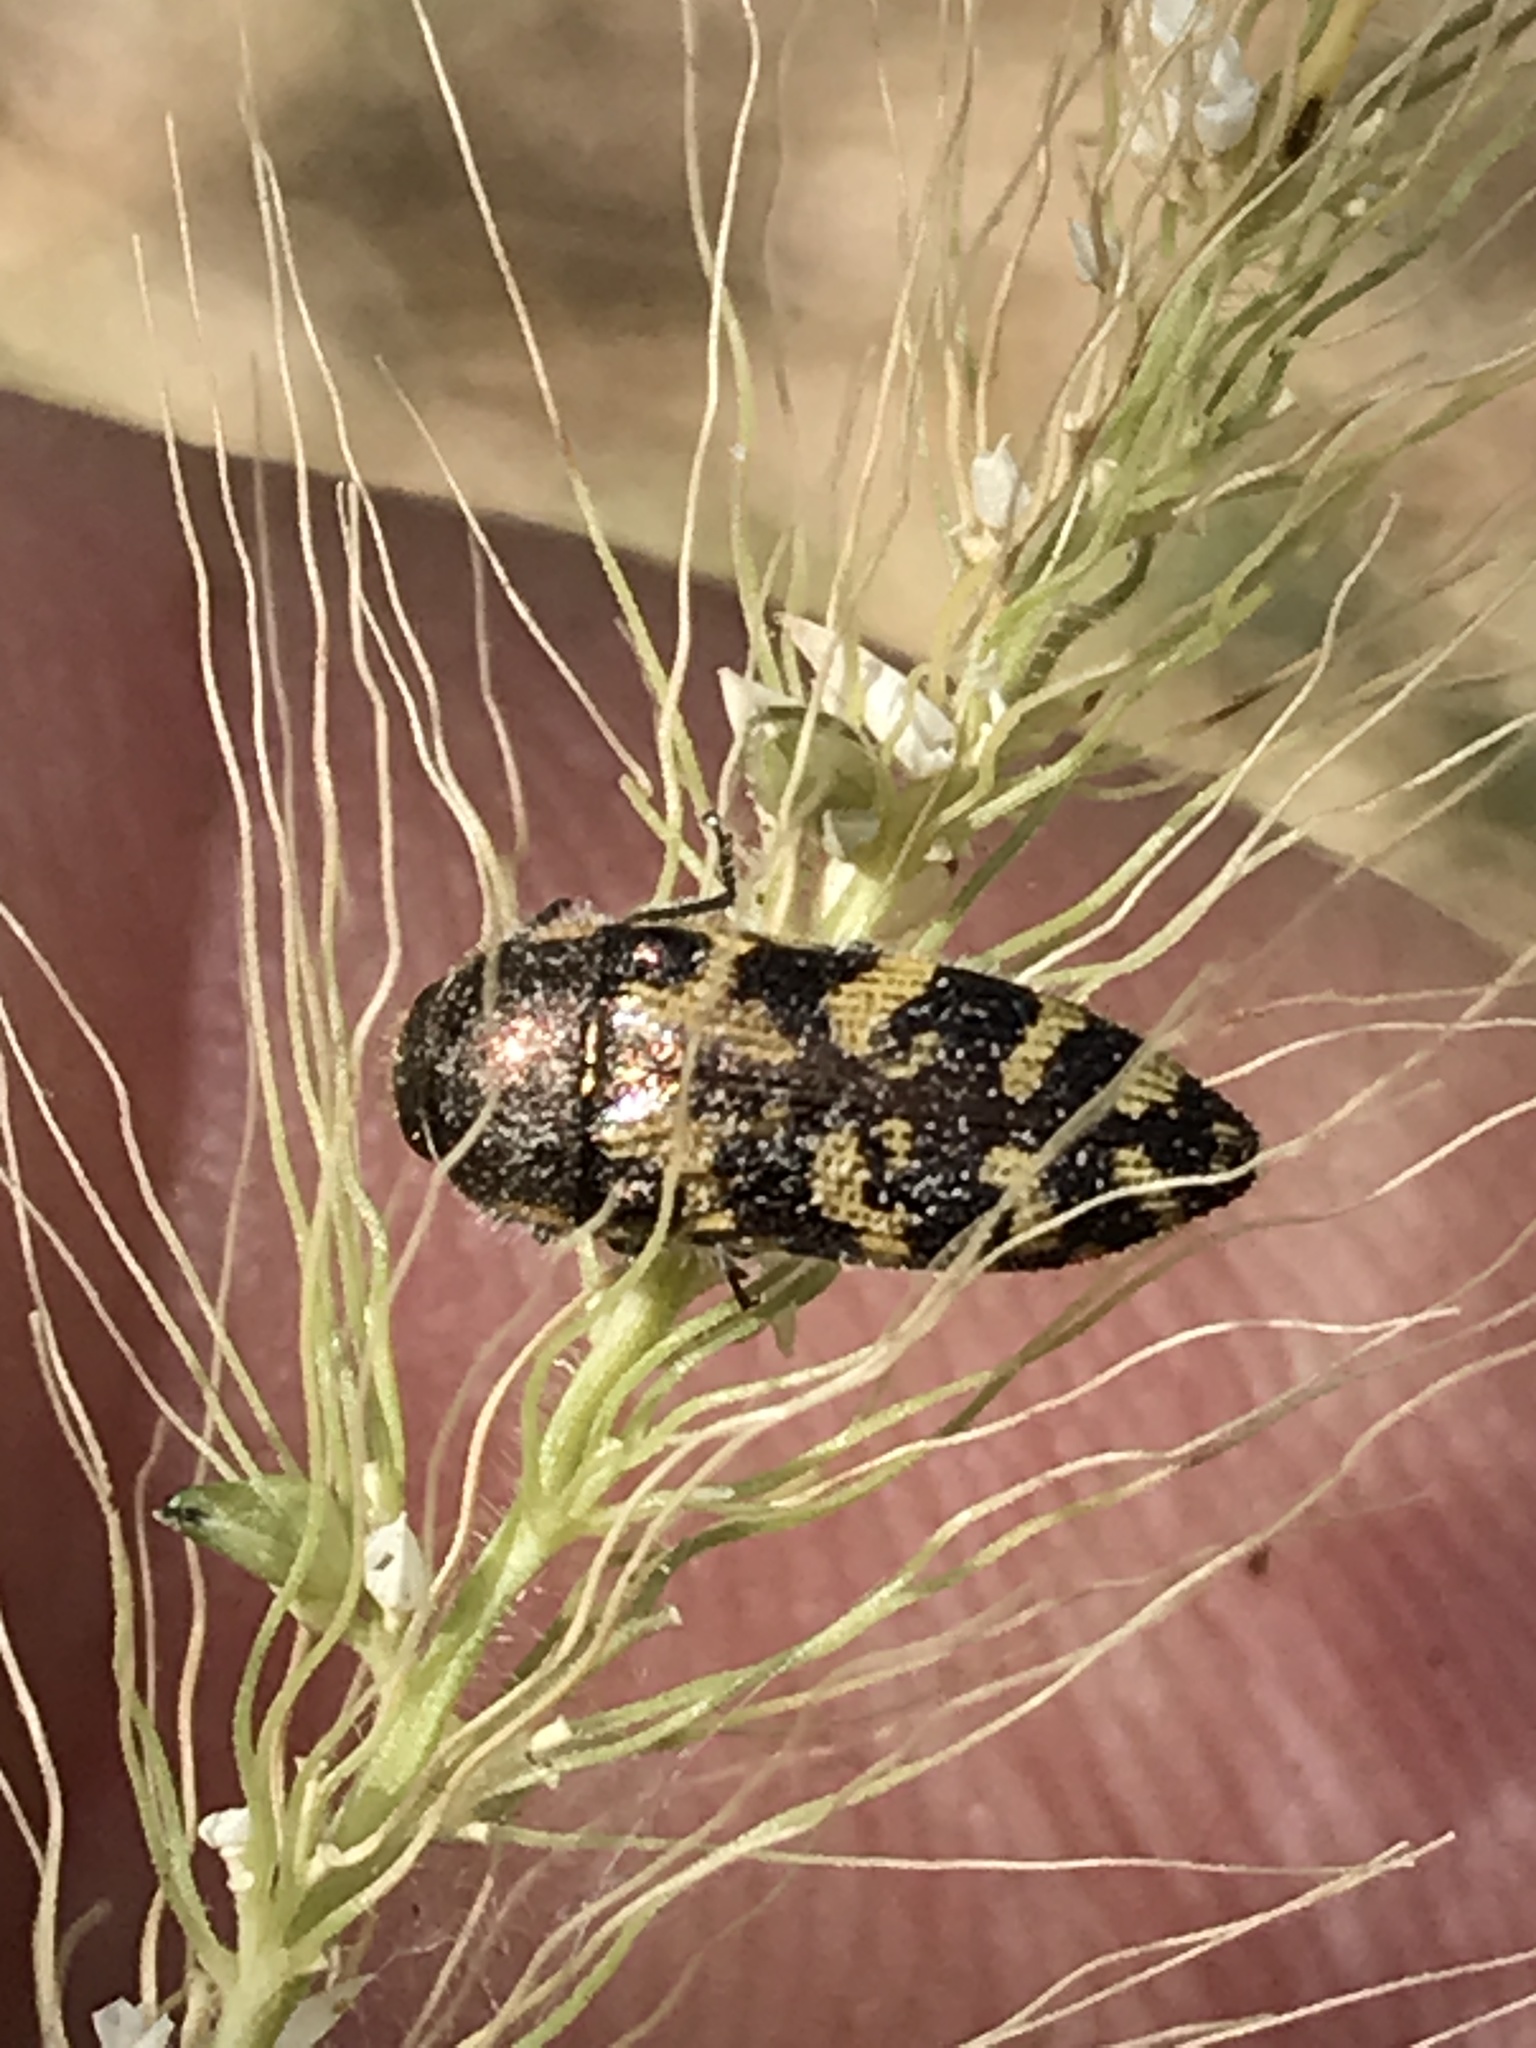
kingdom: Animalia
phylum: Arthropoda
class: Insecta
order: Coleoptera
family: Buprestidae
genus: Acmaeodera
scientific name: Acmaeodera mixta
